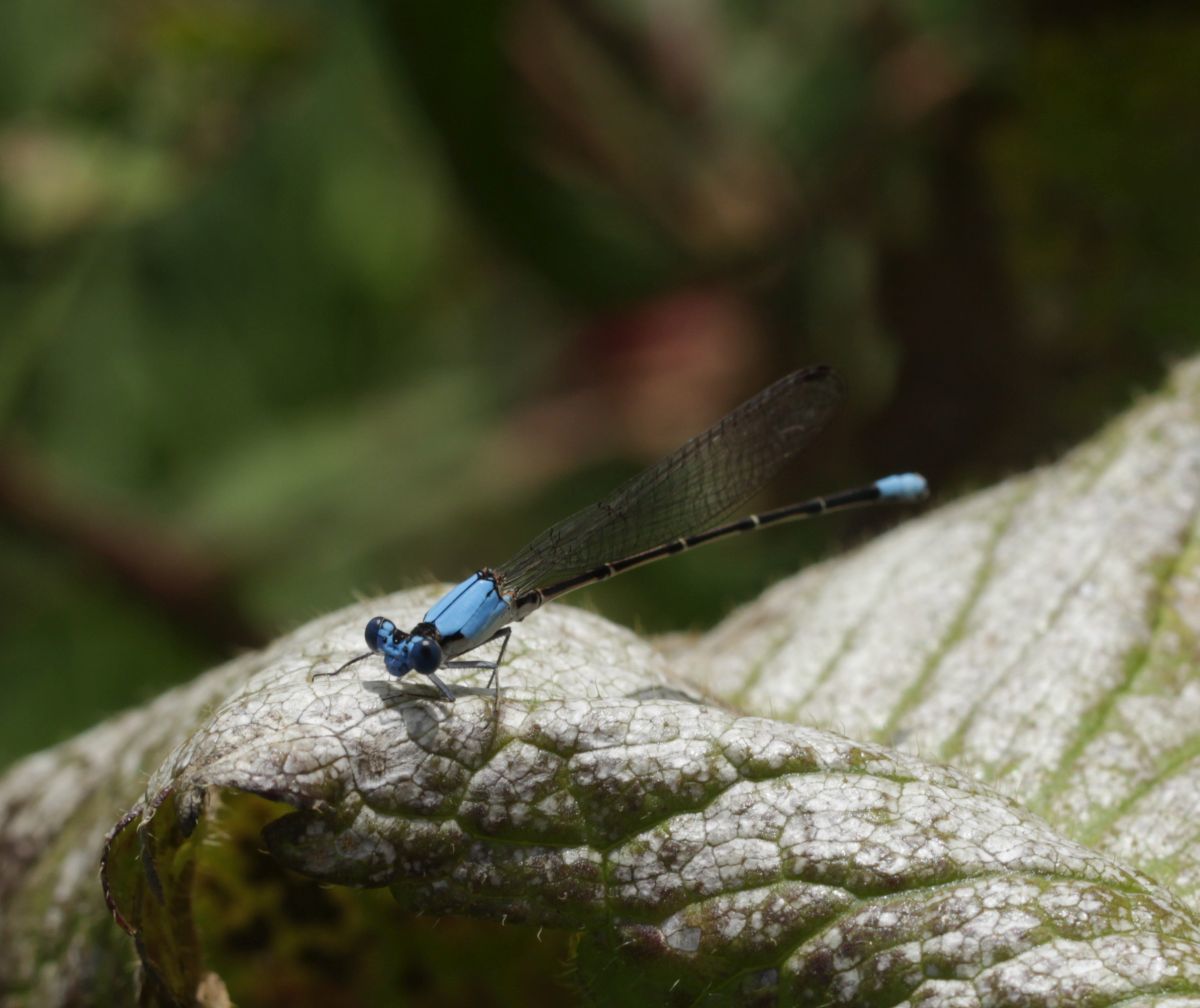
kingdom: Animalia
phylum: Arthropoda
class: Insecta
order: Odonata
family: Coenagrionidae
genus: Argia
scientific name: Argia apicalis
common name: Blue-fronted dancer
